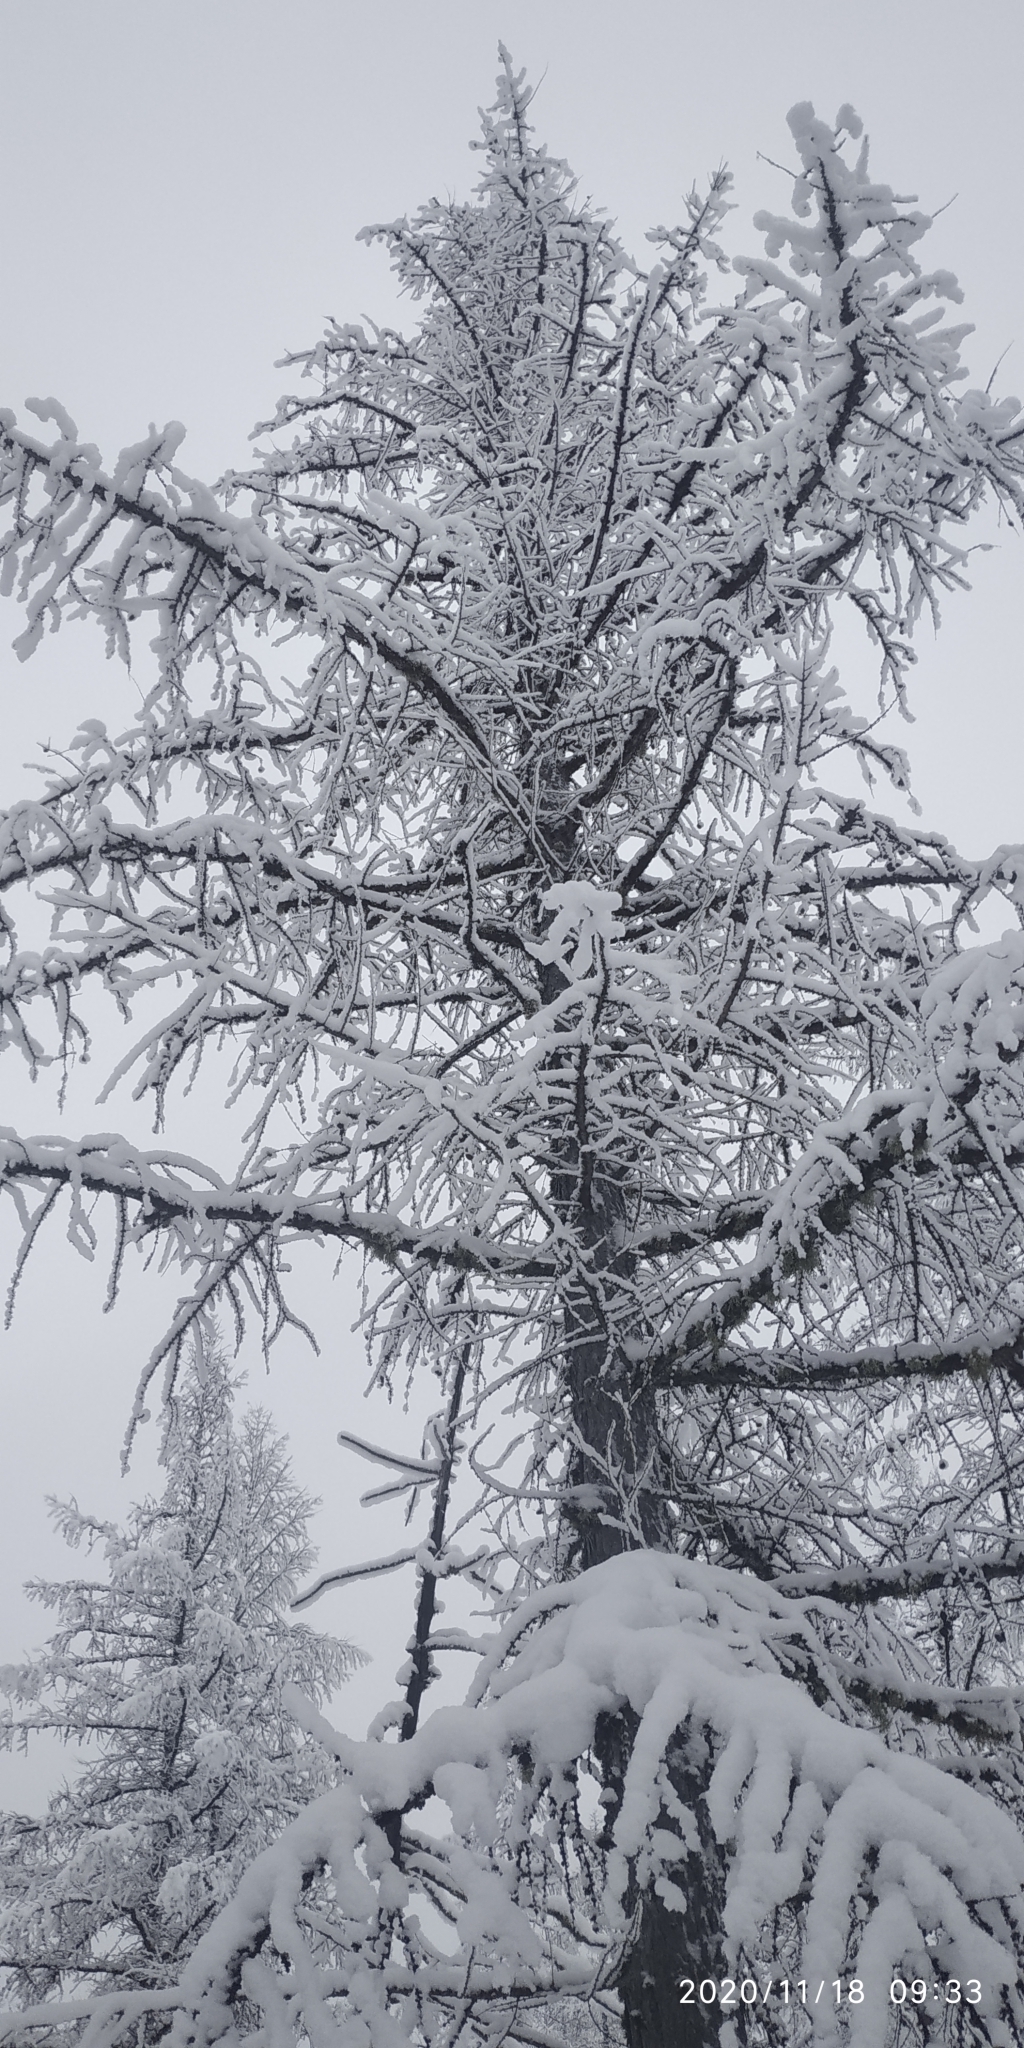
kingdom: Plantae
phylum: Tracheophyta
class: Pinopsida
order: Pinales
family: Pinaceae
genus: Larix
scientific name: Larix sibirica
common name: Siberian larch
